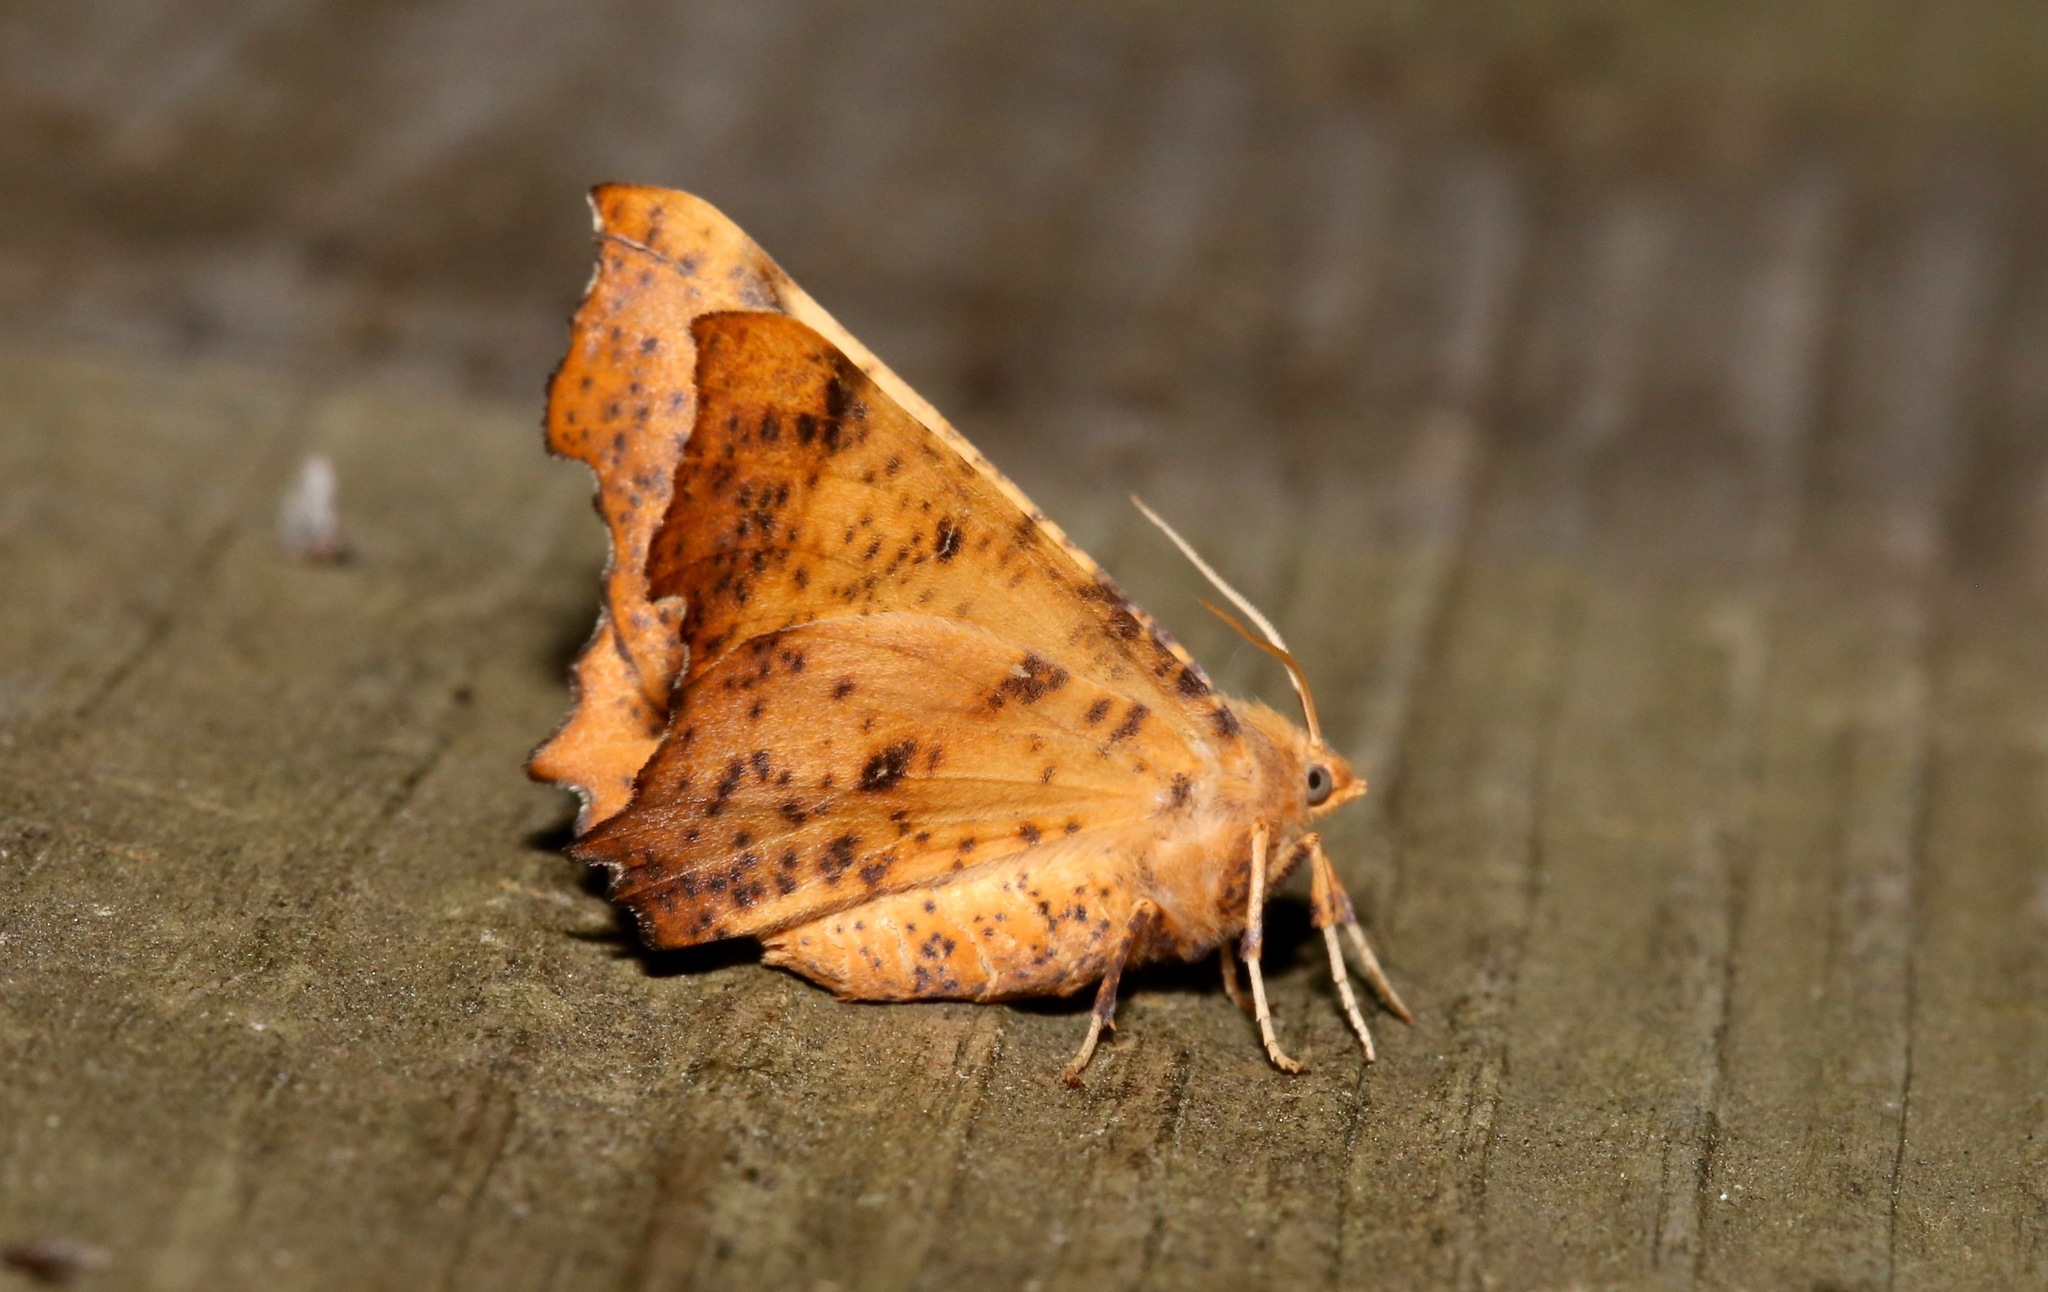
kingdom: Animalia
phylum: Arthropoda
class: Insecta
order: Lepidoptera
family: Geometridae
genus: Ennomos
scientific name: Ennomos magnaria
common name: Maple spanworm
